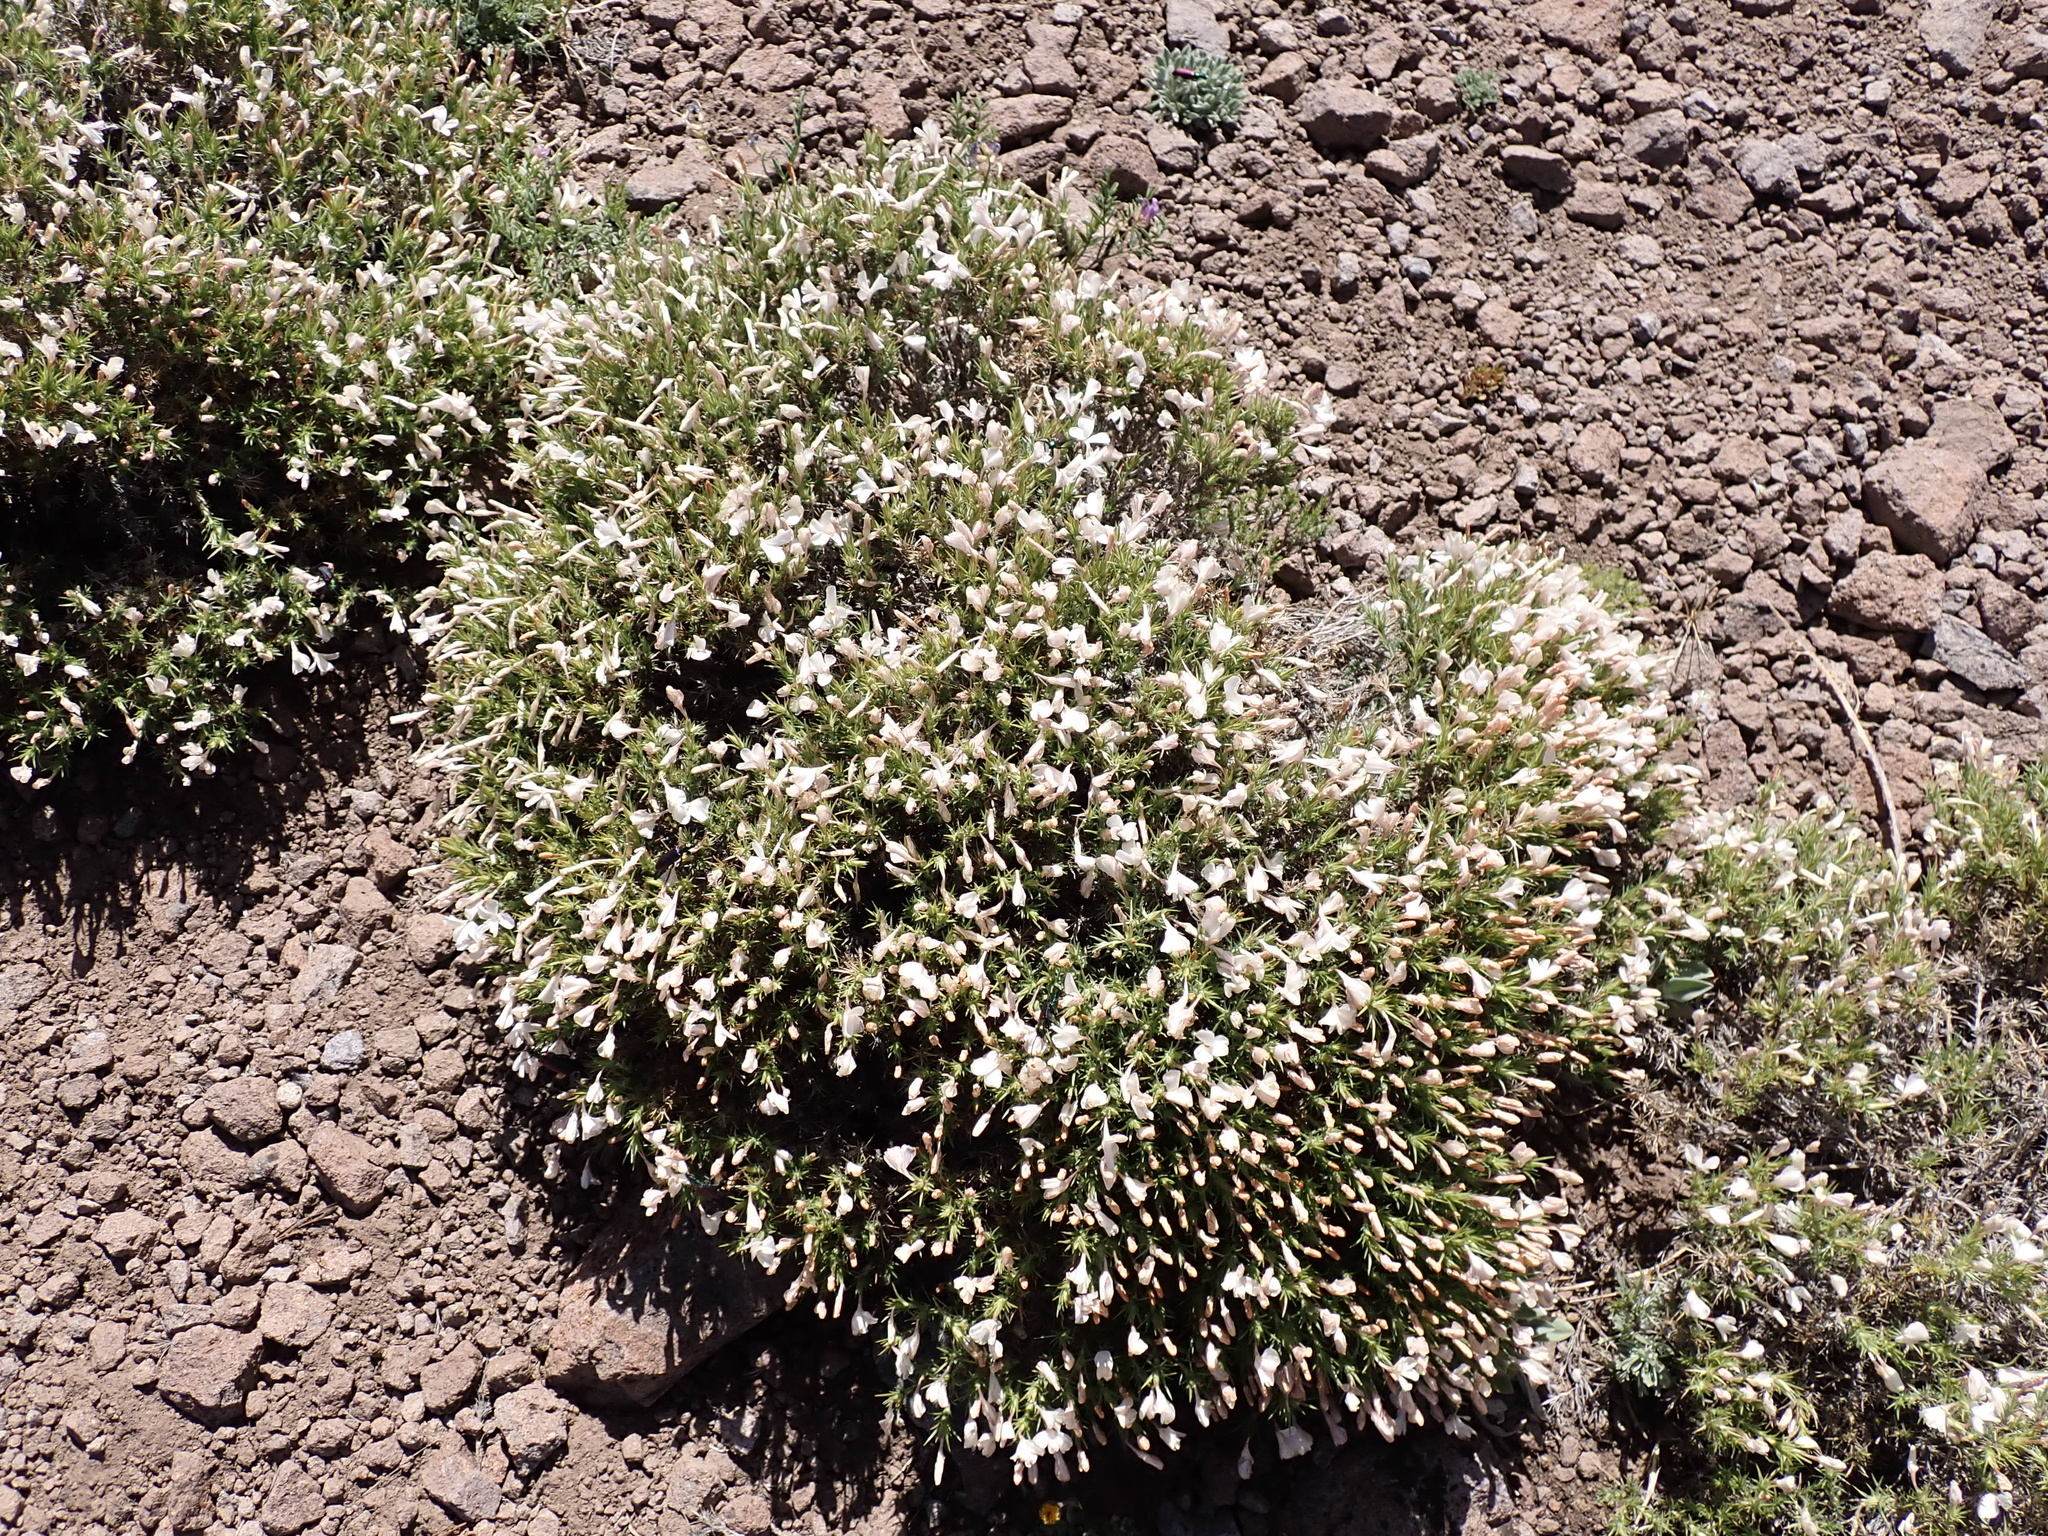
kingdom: Plantae
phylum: Tracheophyta
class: Magnoliopsida
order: Ericales
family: Polemoniaceae
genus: Linanthus
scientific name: Linanthus pungens
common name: Granite prickly phlox
